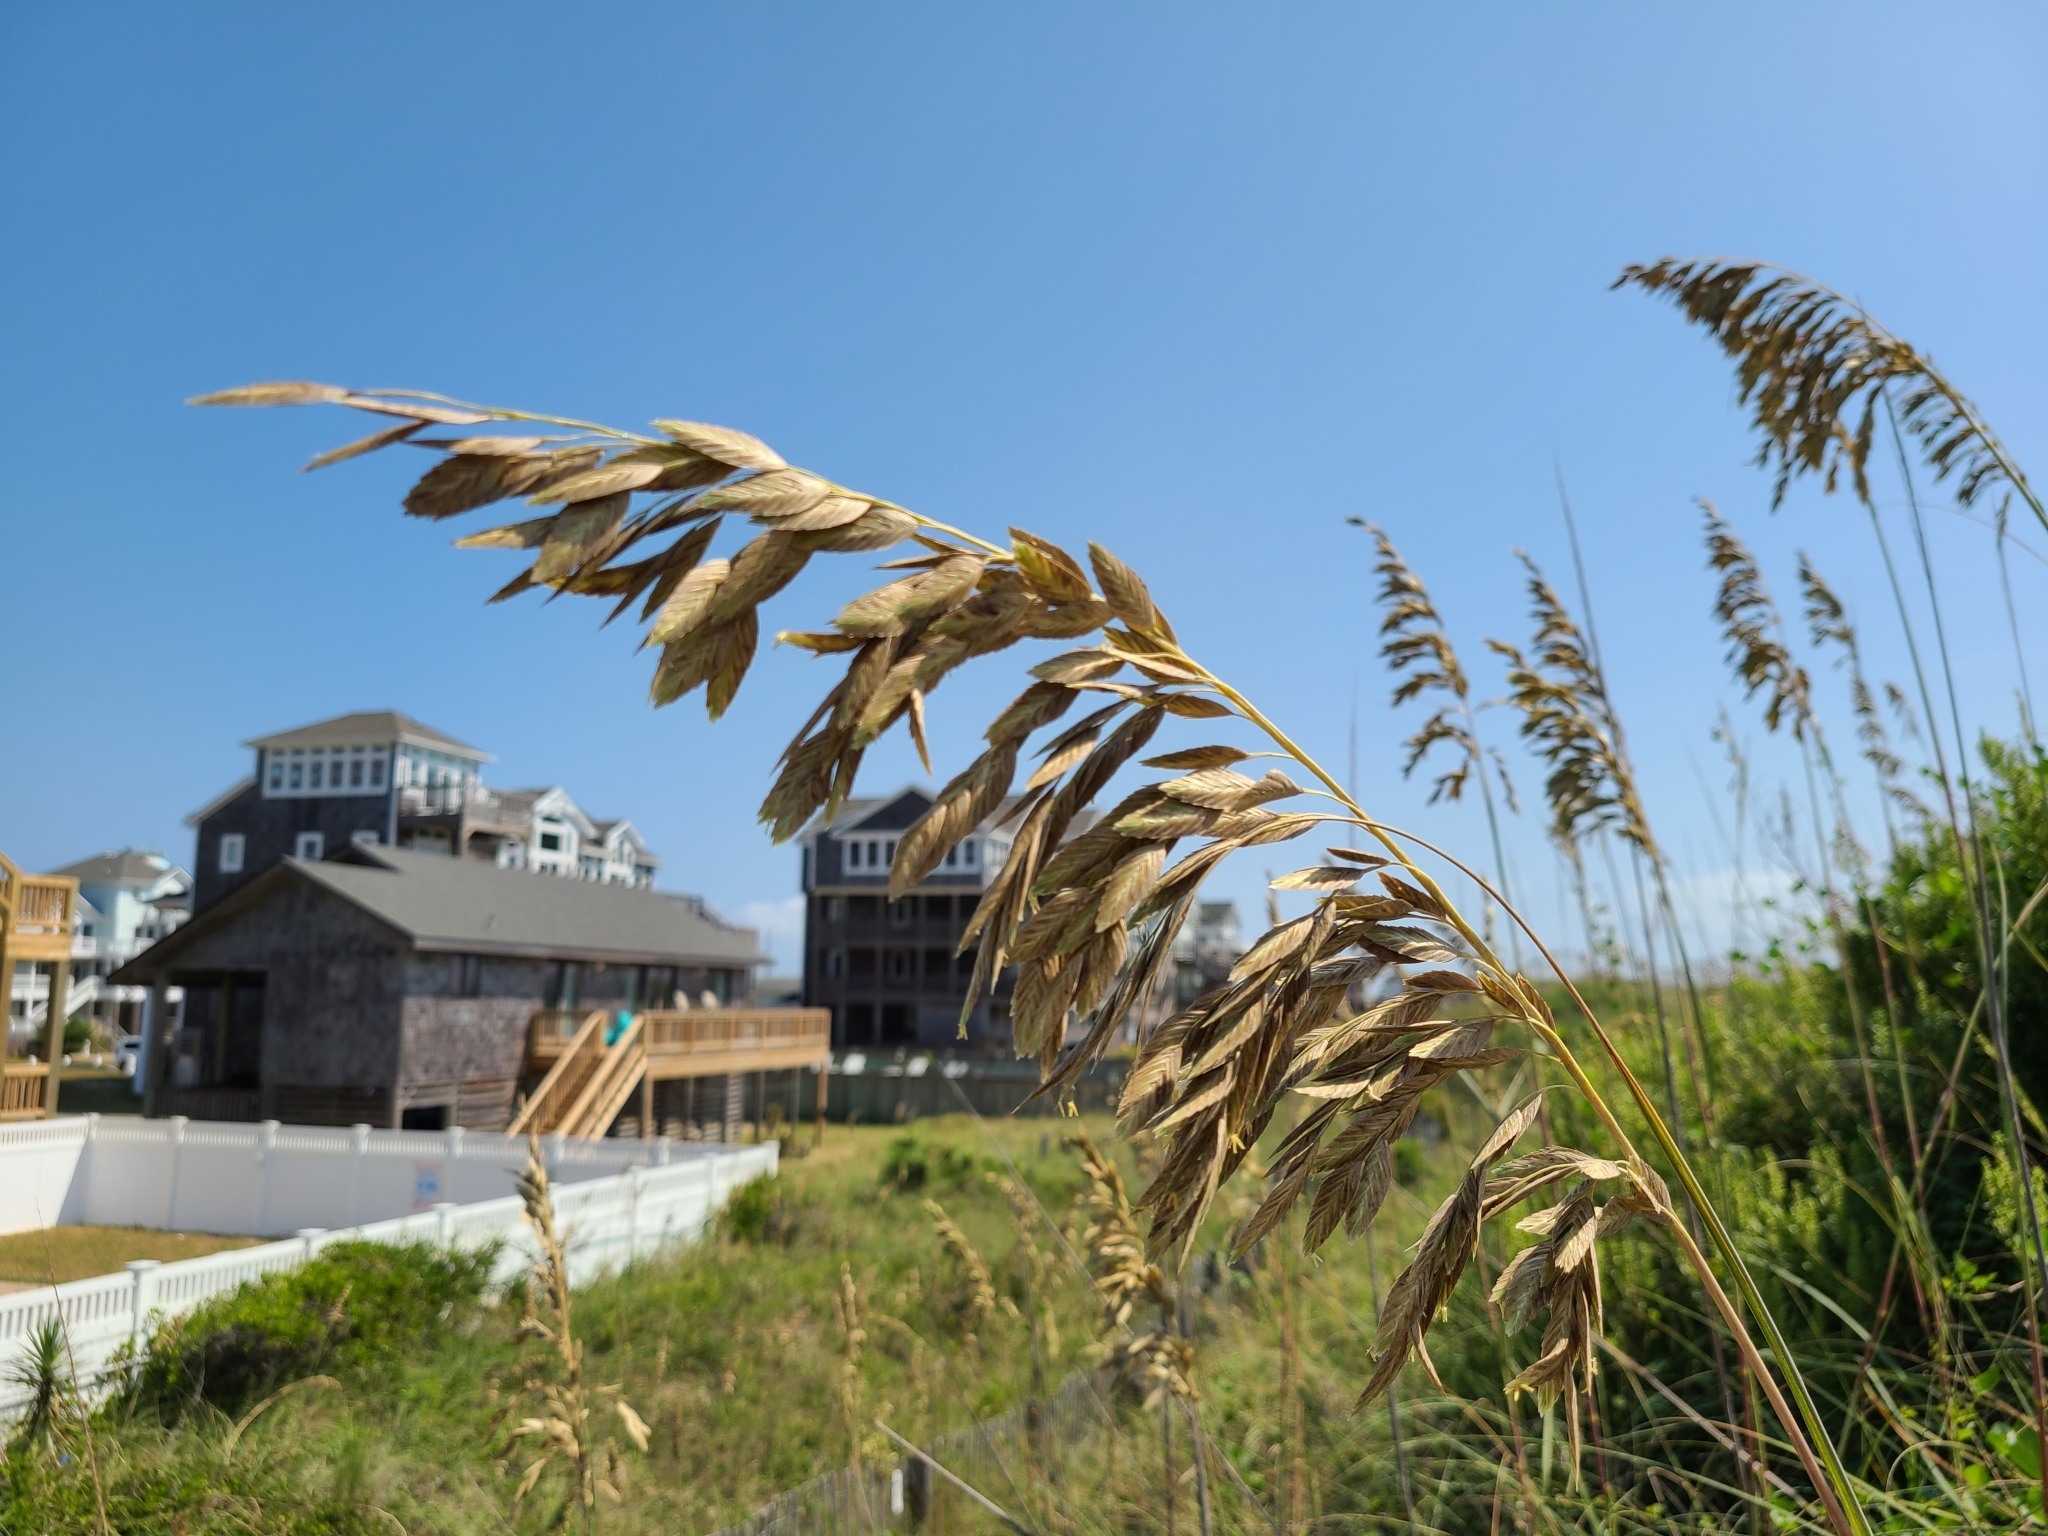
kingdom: Plantae
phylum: Tracheophyta
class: Liliopsida
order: Poales
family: Poaceae
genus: Uniola
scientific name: Uniola paniculata
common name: Seaside-oats
